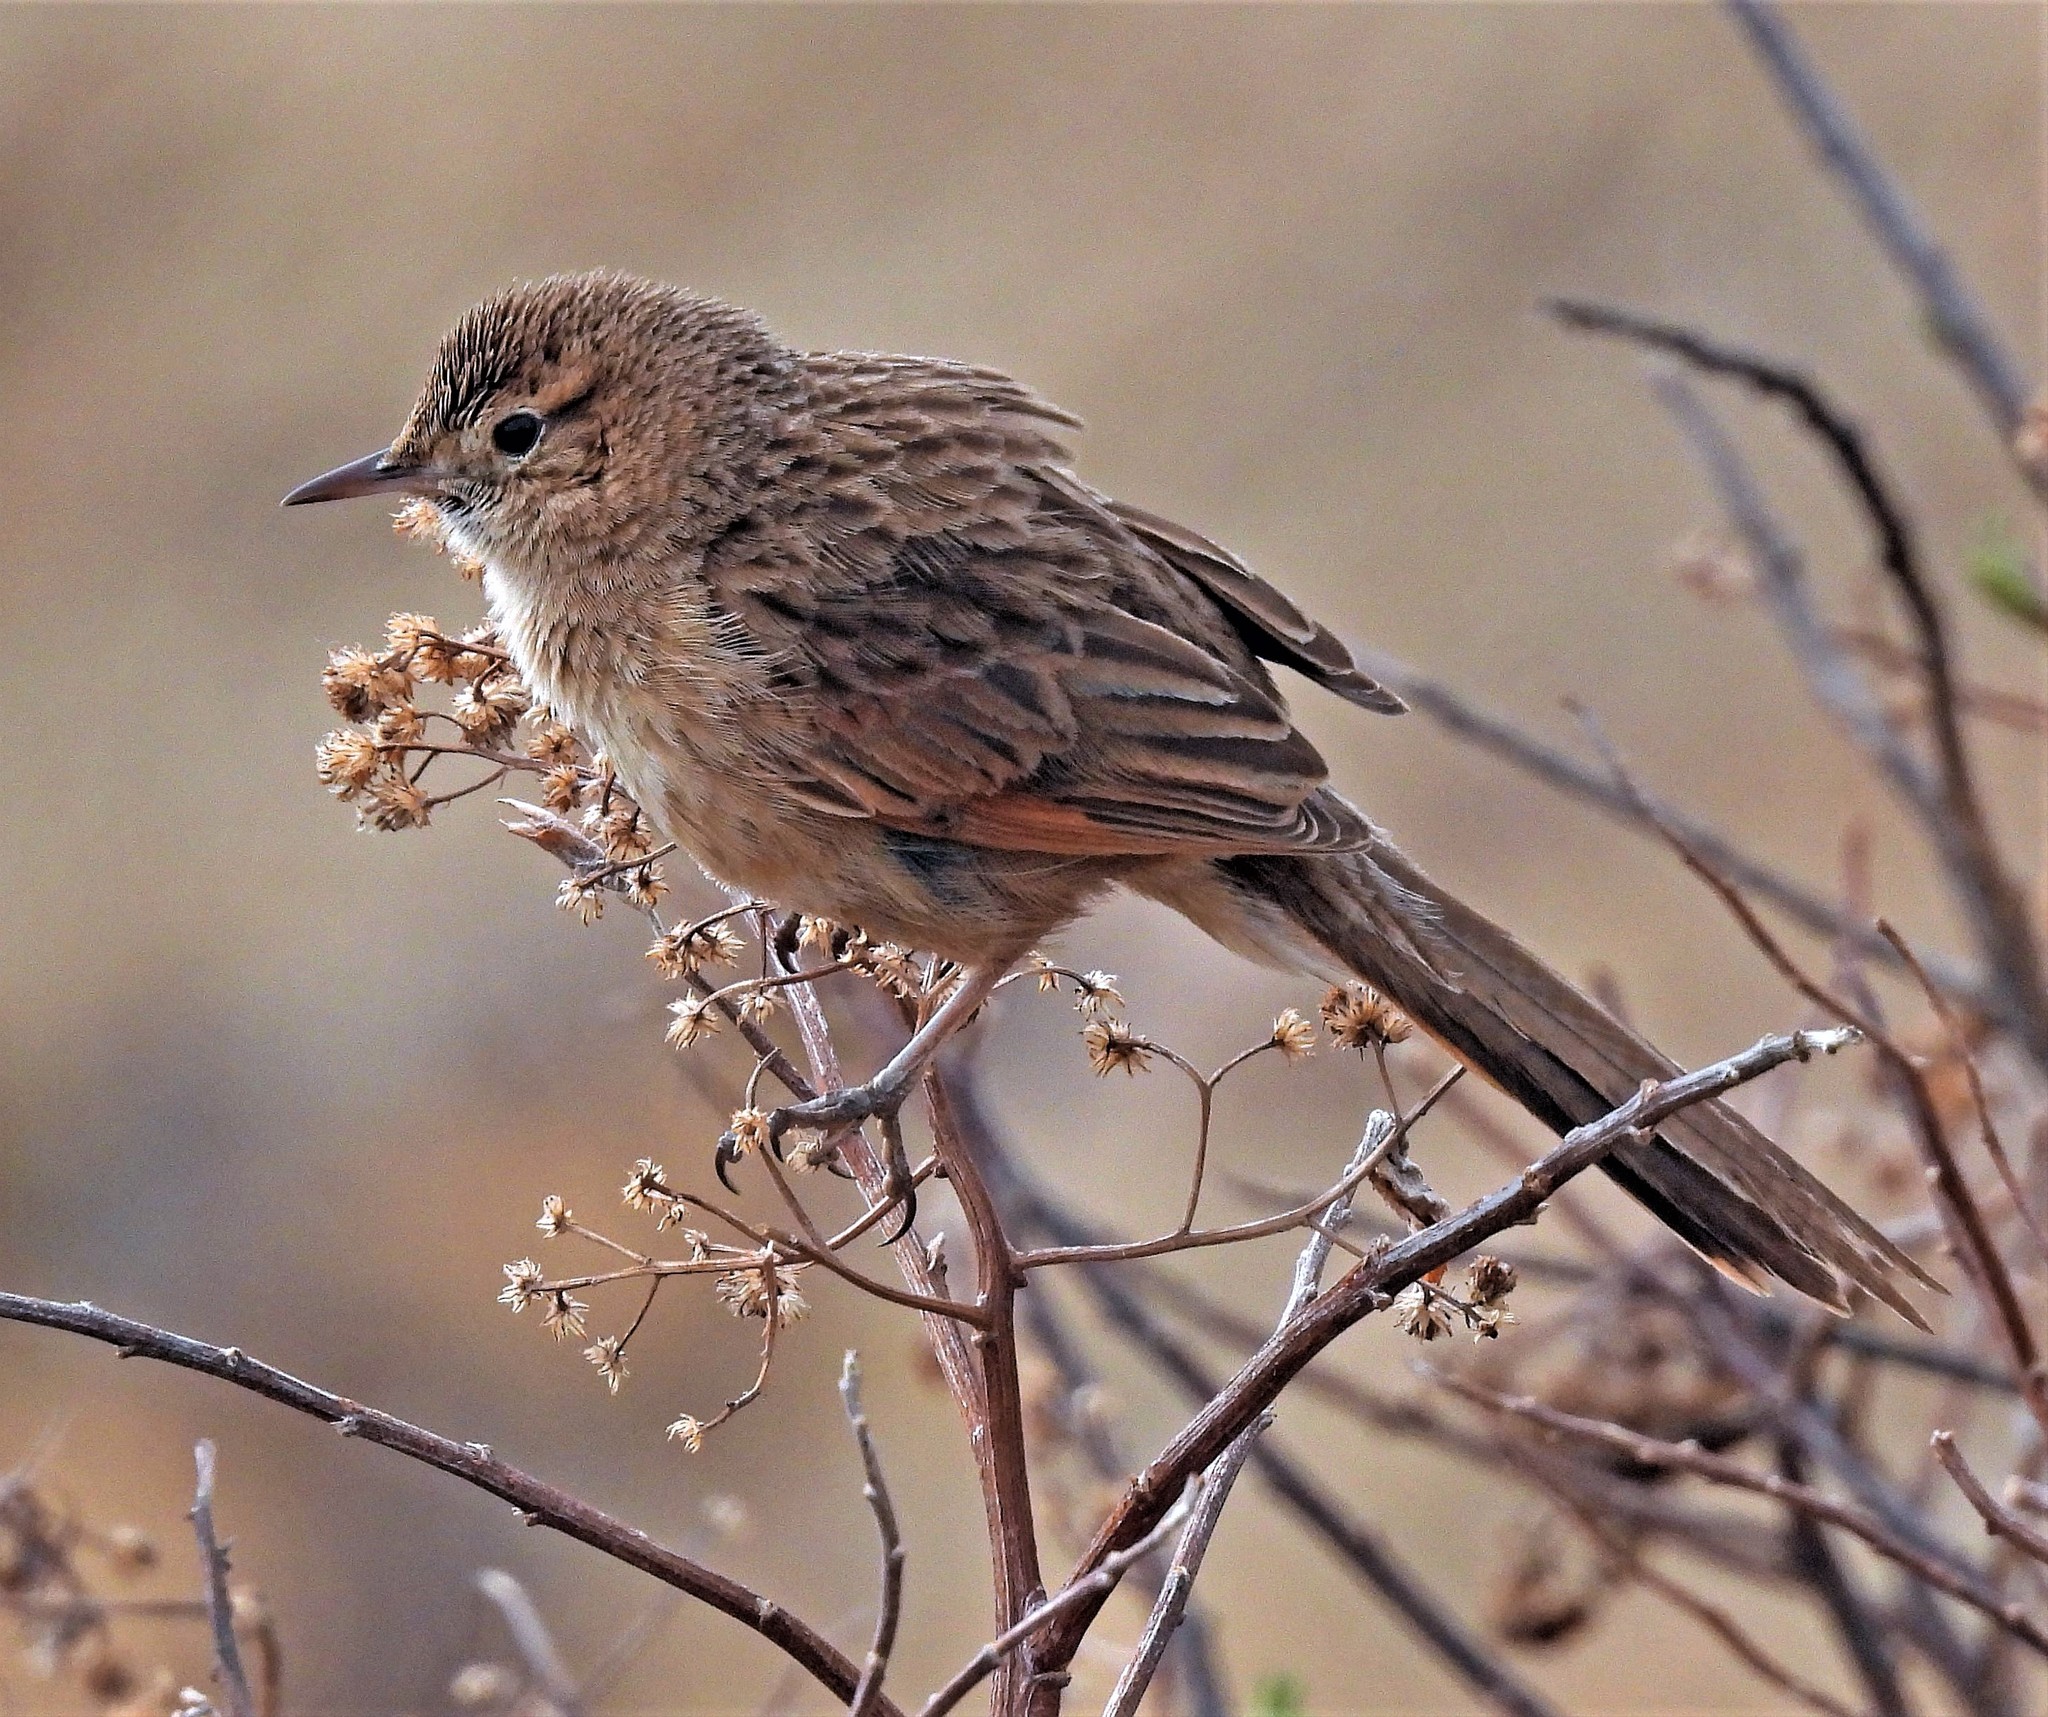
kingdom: Animalia
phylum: Chordata
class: Aves
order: Passeriformes
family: Furnariidae
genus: Asthenes
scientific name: Asthenes wyatti
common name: Streak-backed canastero
